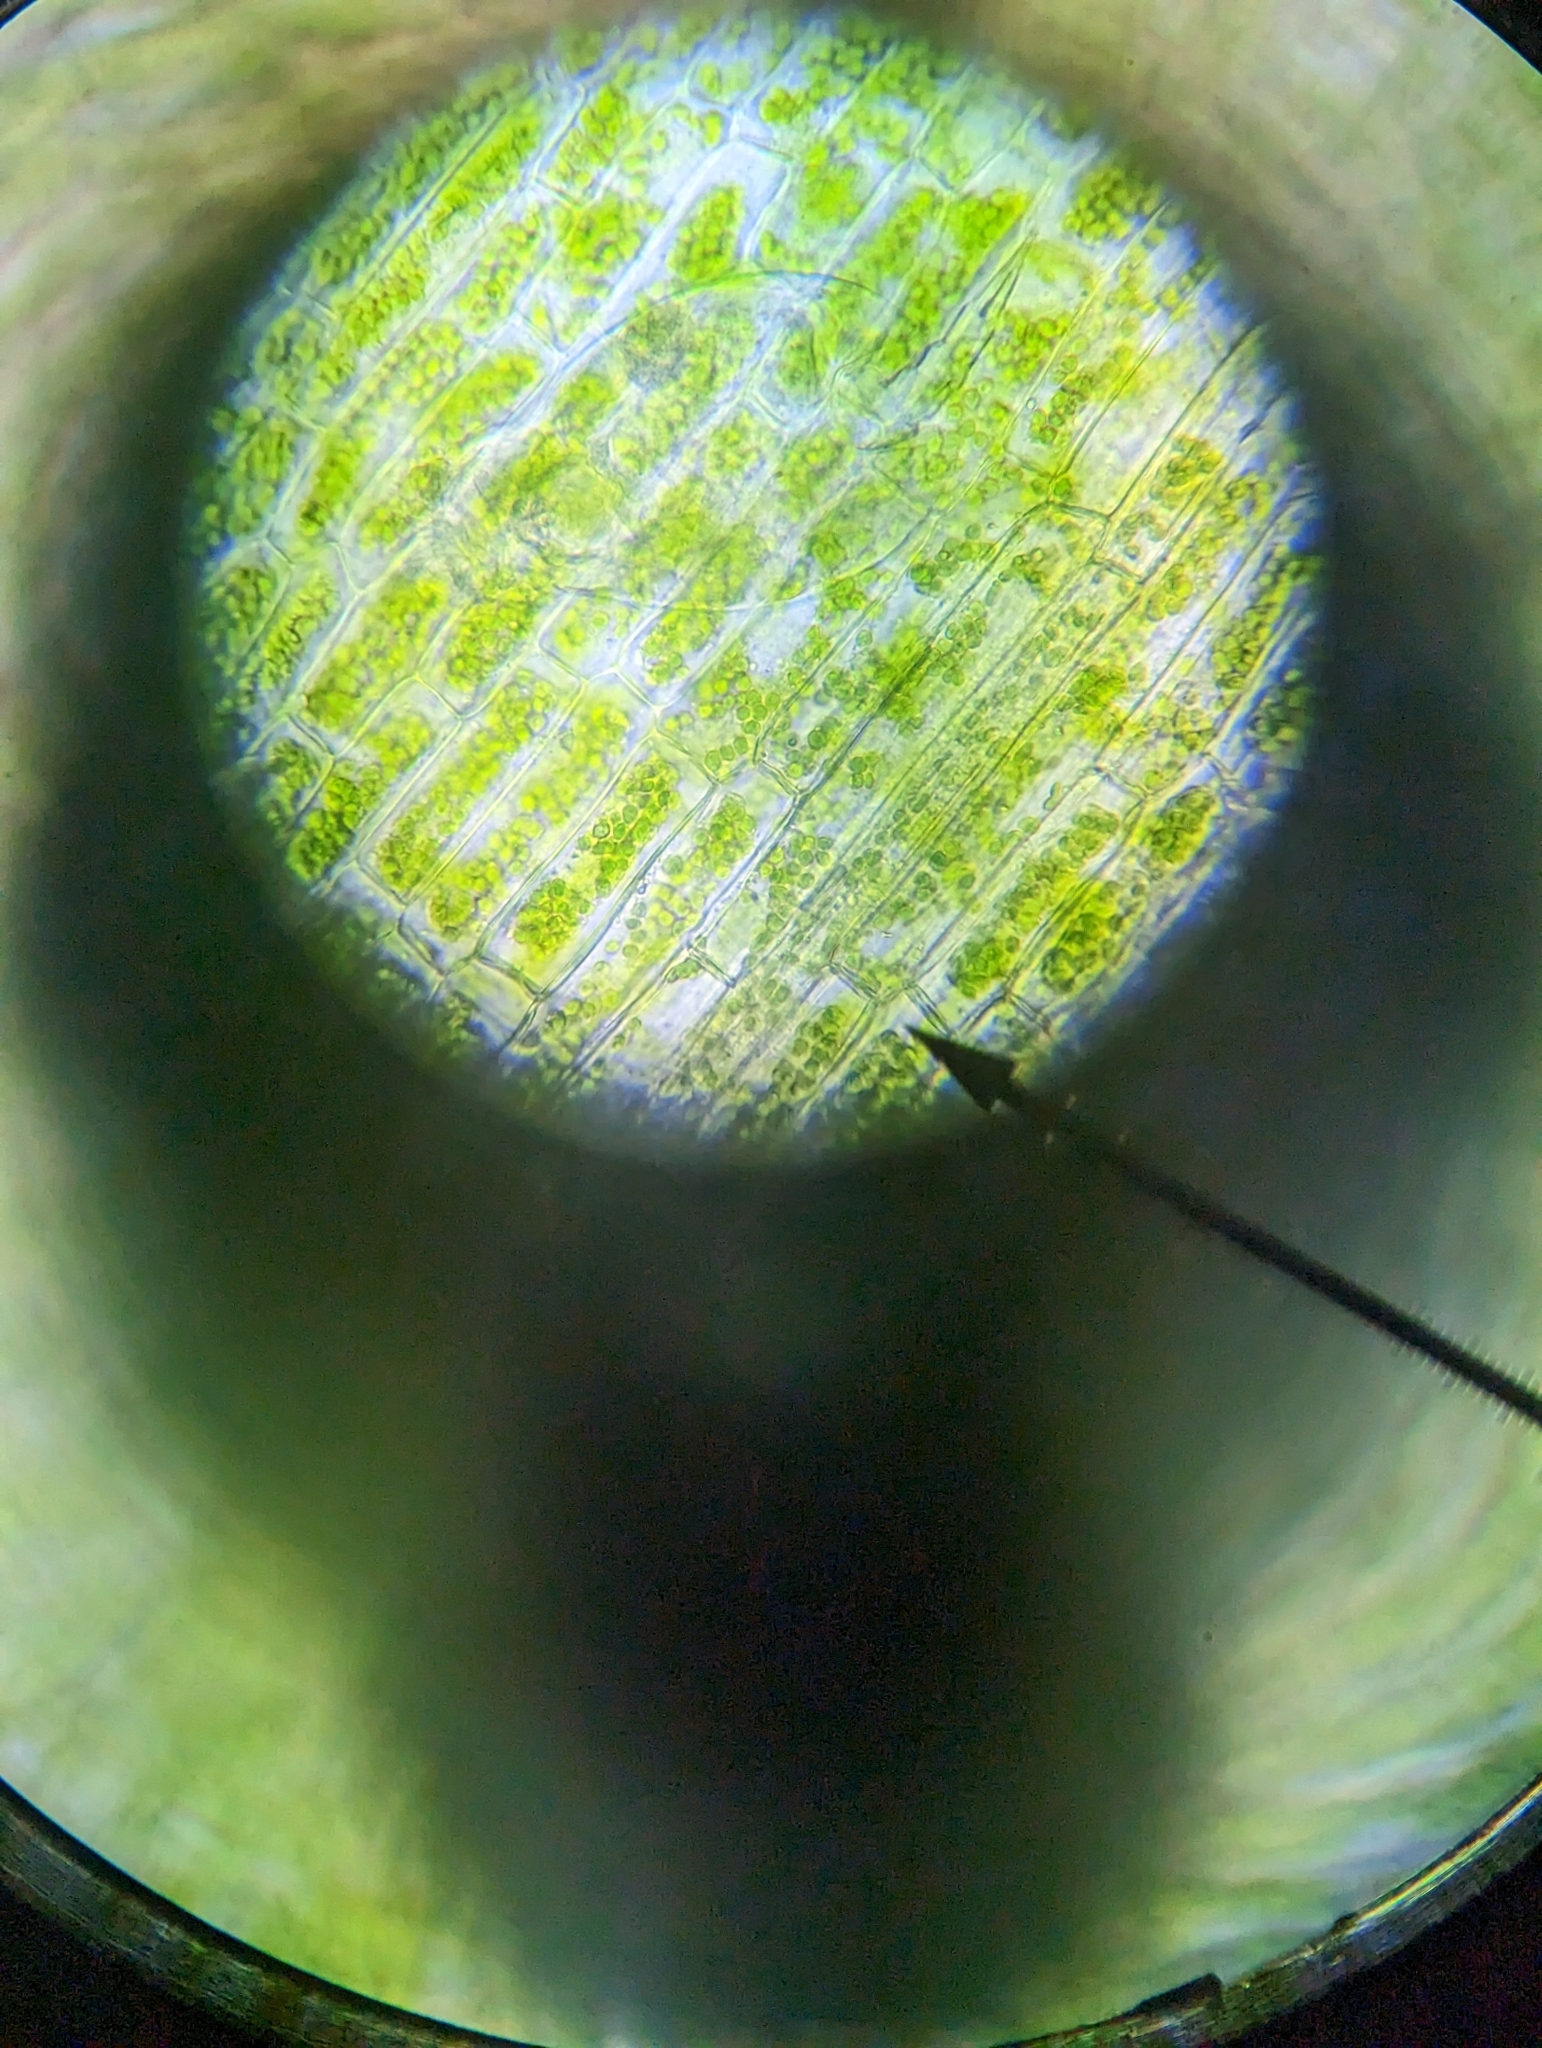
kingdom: Animalia
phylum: Rotifera
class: Eurotatoria
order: Ploima
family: Lepadellidae
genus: Lepadella
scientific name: Lepadella
